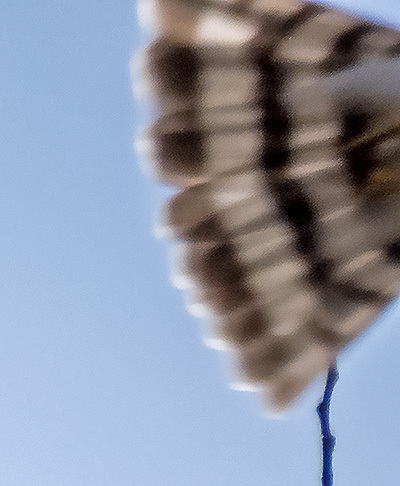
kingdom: Animalia
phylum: Chordata
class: Aves
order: Accipitriformes
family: Accipitridae
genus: Accipiter
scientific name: Accipiter striatus
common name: Sharp-shinned hawk
